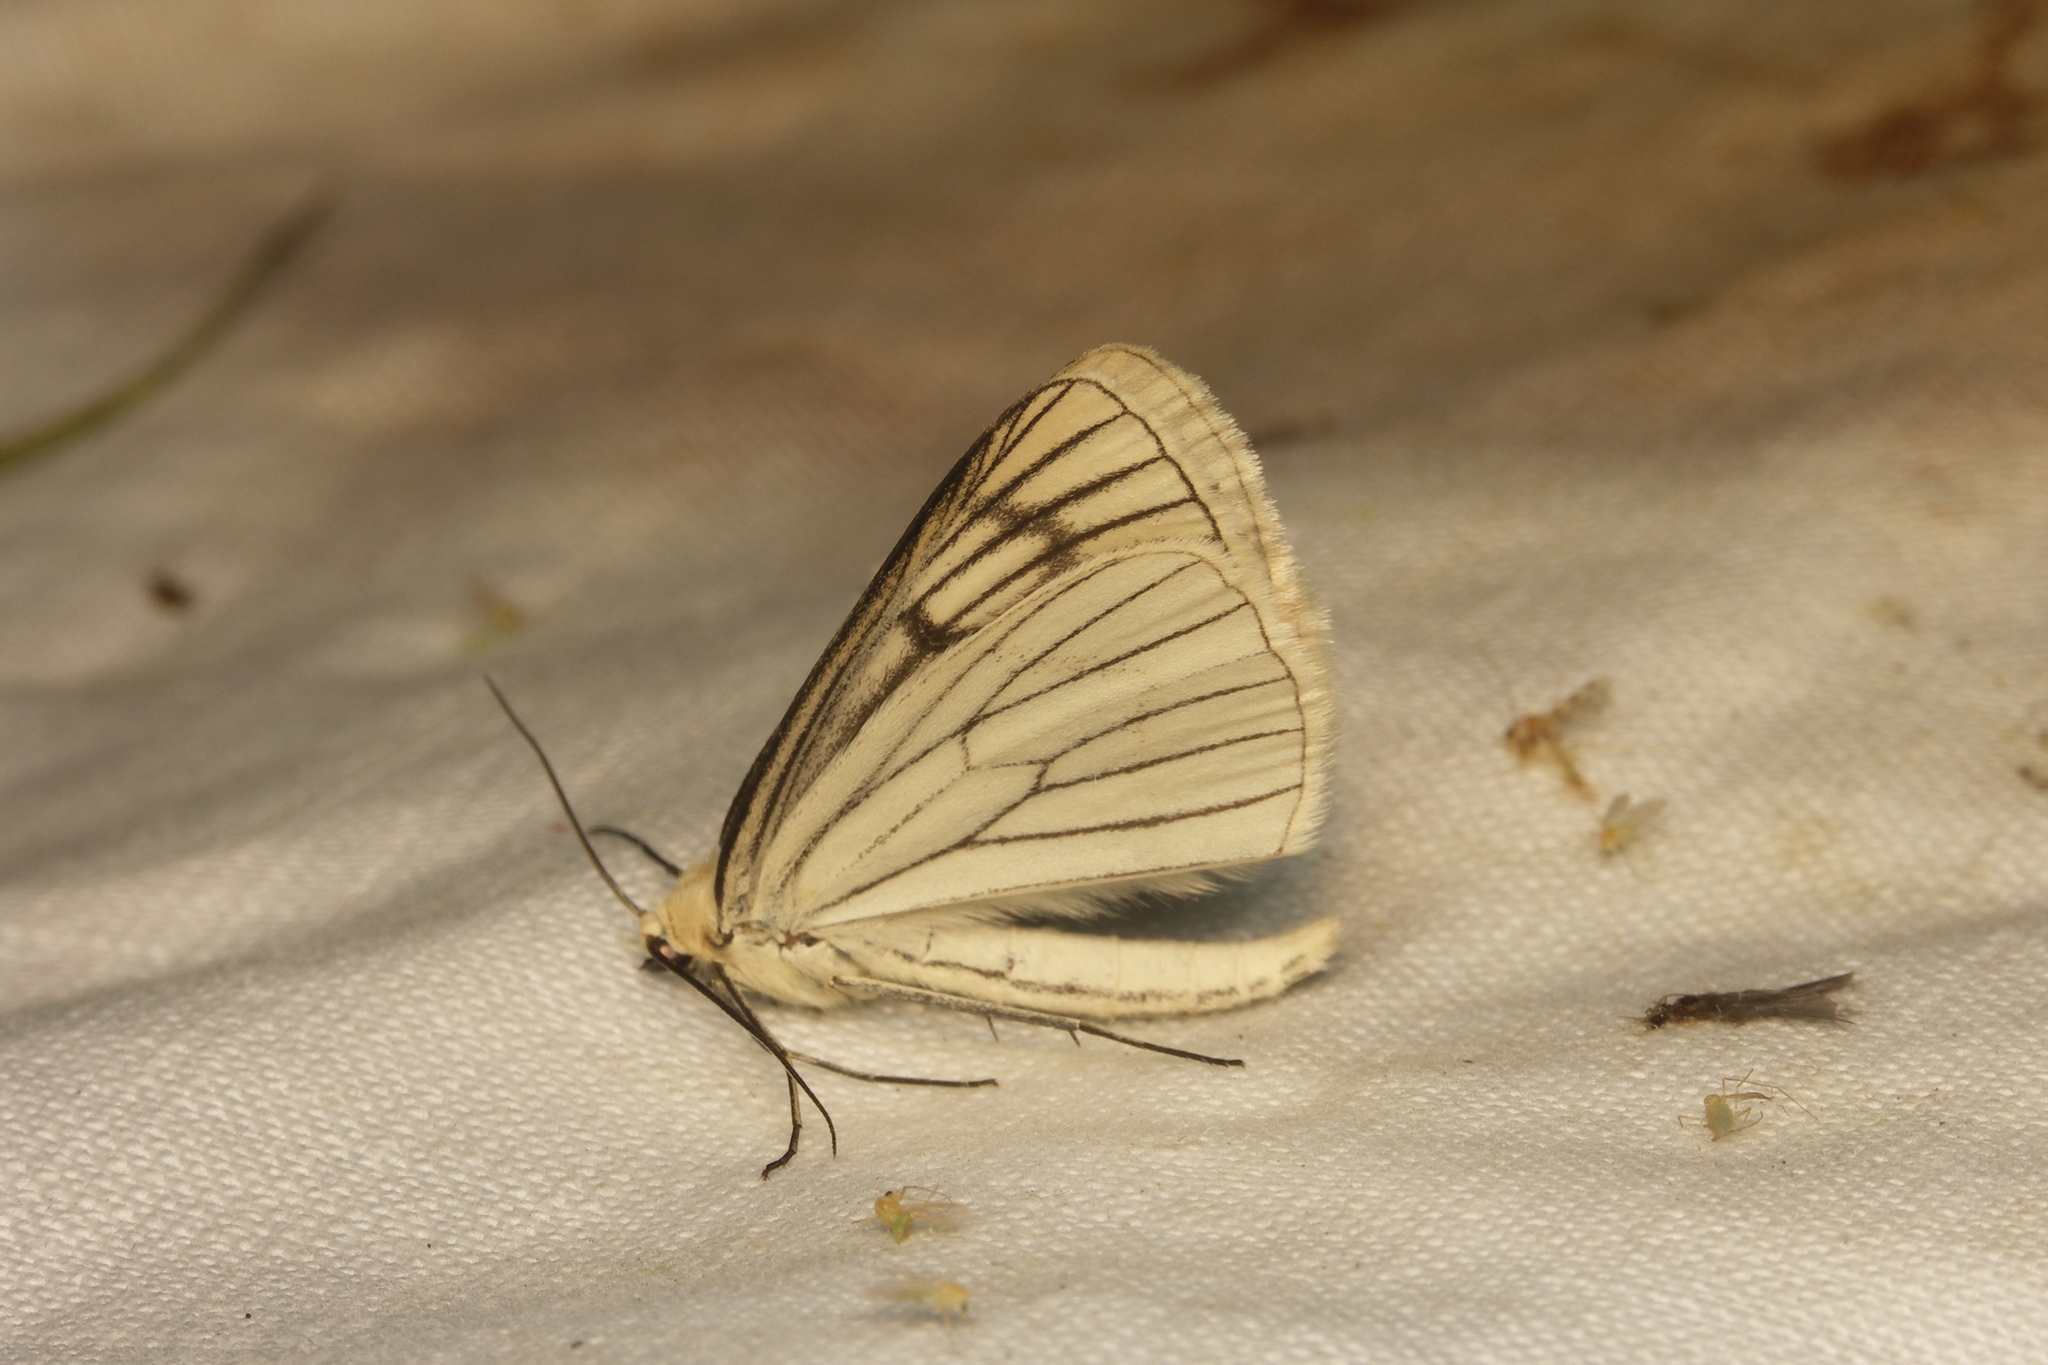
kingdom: Animalia
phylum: Arthropoda
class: Insecta
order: Lepidoptera
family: Geometridae
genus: Siona
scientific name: Siona lineata
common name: Black-veined moth
